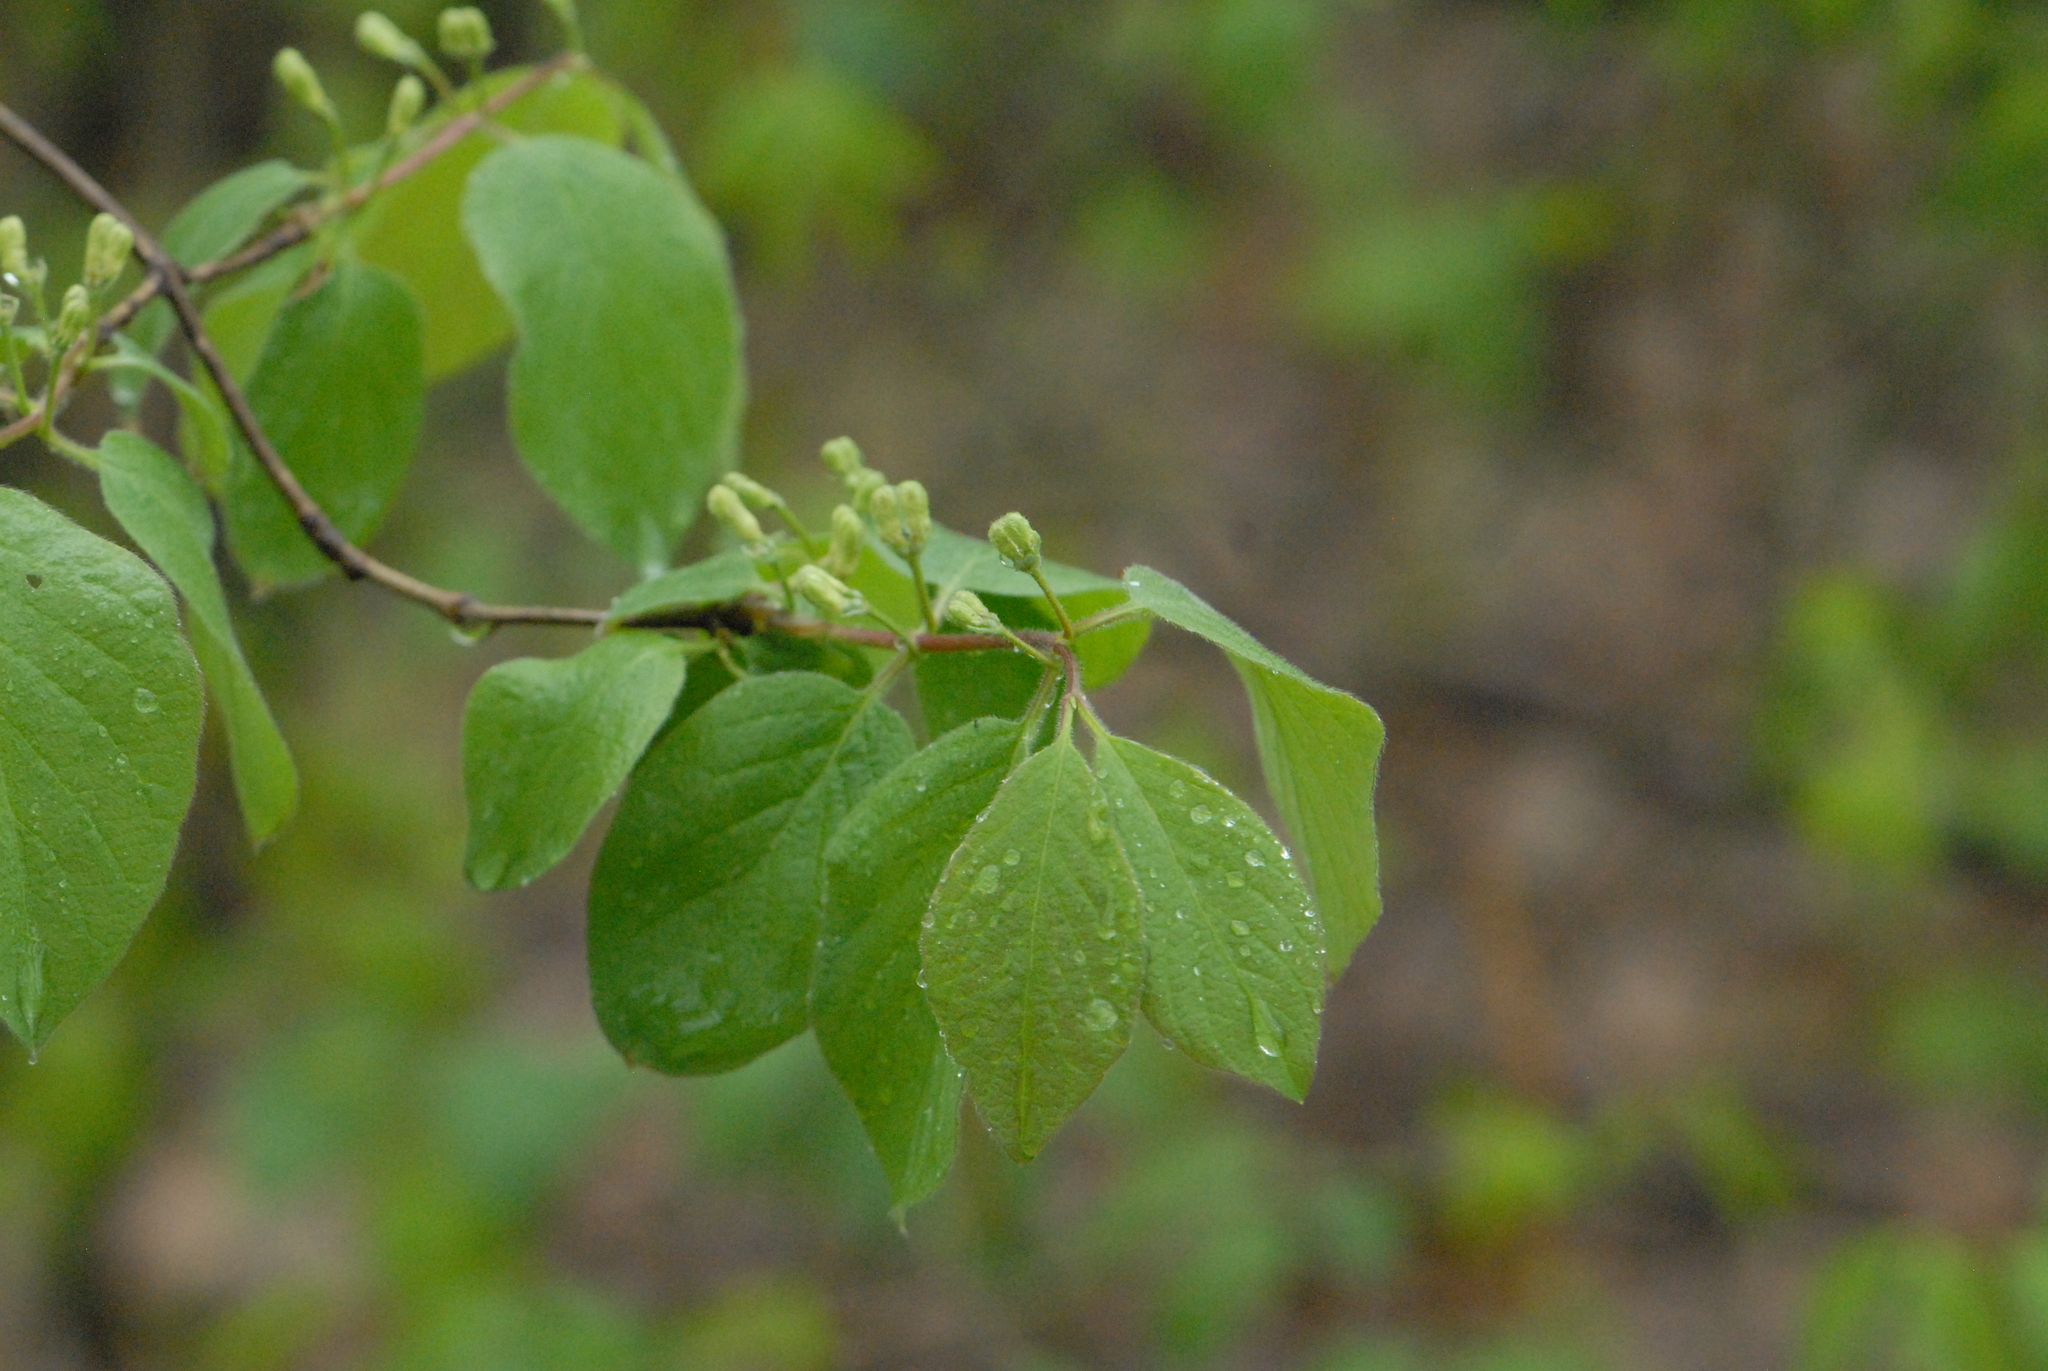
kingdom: Plantae
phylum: Tracheophyta
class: Magnoliopsida
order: Dipsacales
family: Caprifoliaceae
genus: Lonicera
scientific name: Lonicera xylosteum
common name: Fly honeysuckle
